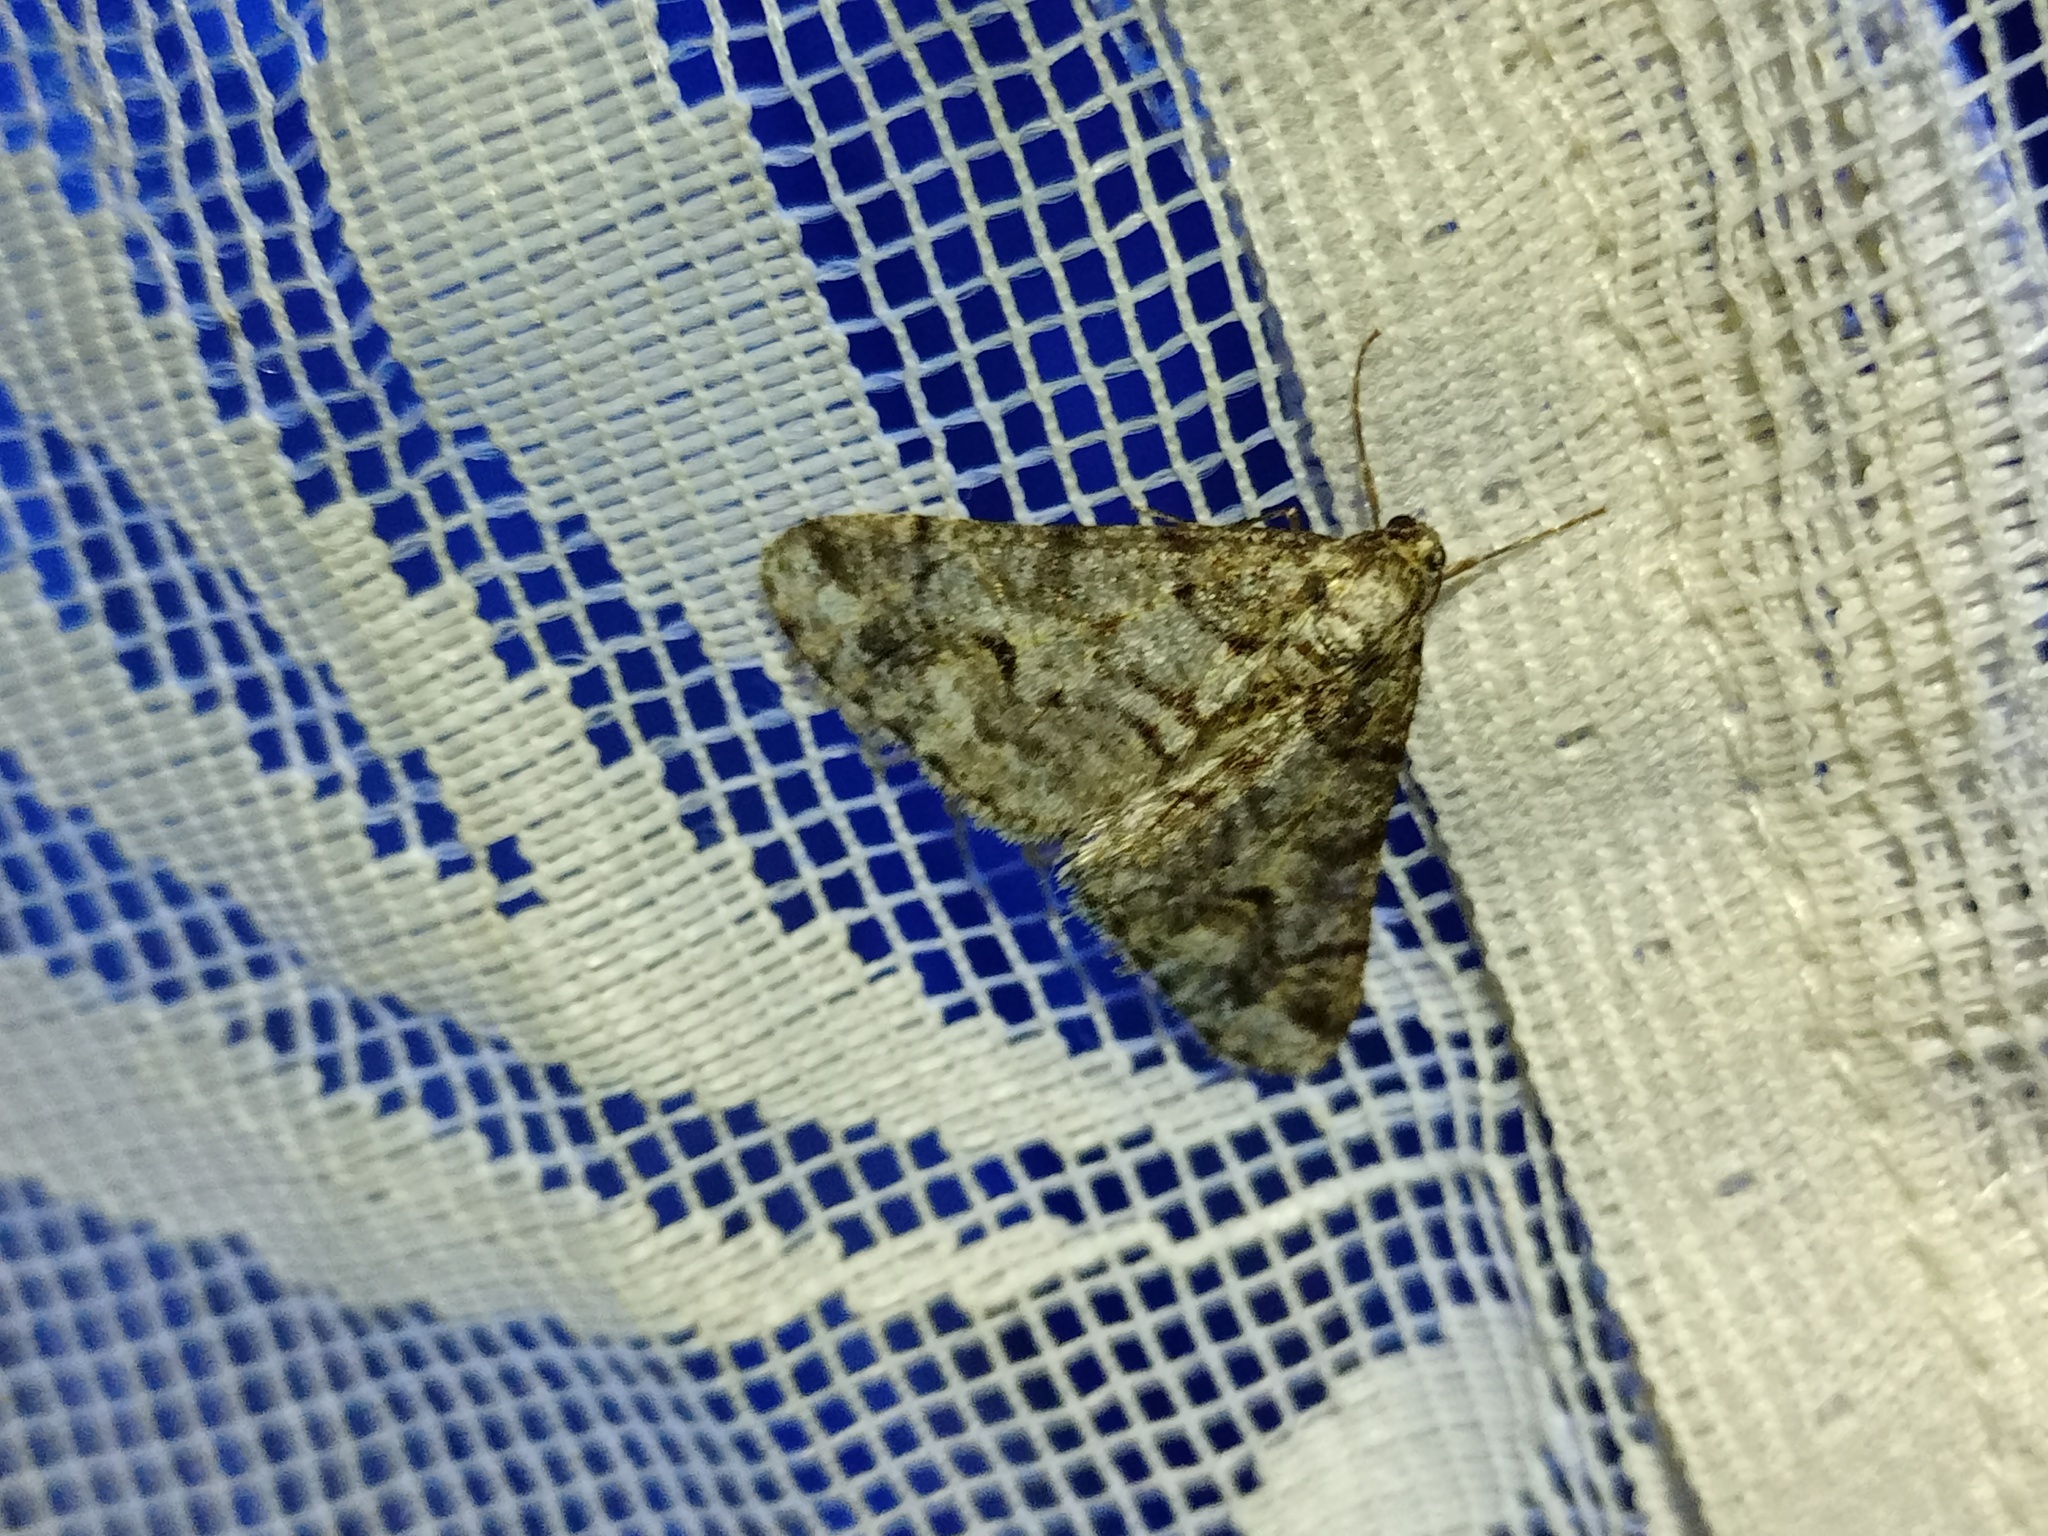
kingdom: Animalia
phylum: Arthropoda
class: Insecta
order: Lepidoptera
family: Geometridae
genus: Agriopis
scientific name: Agriopis leucophaearia
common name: Spring usher
